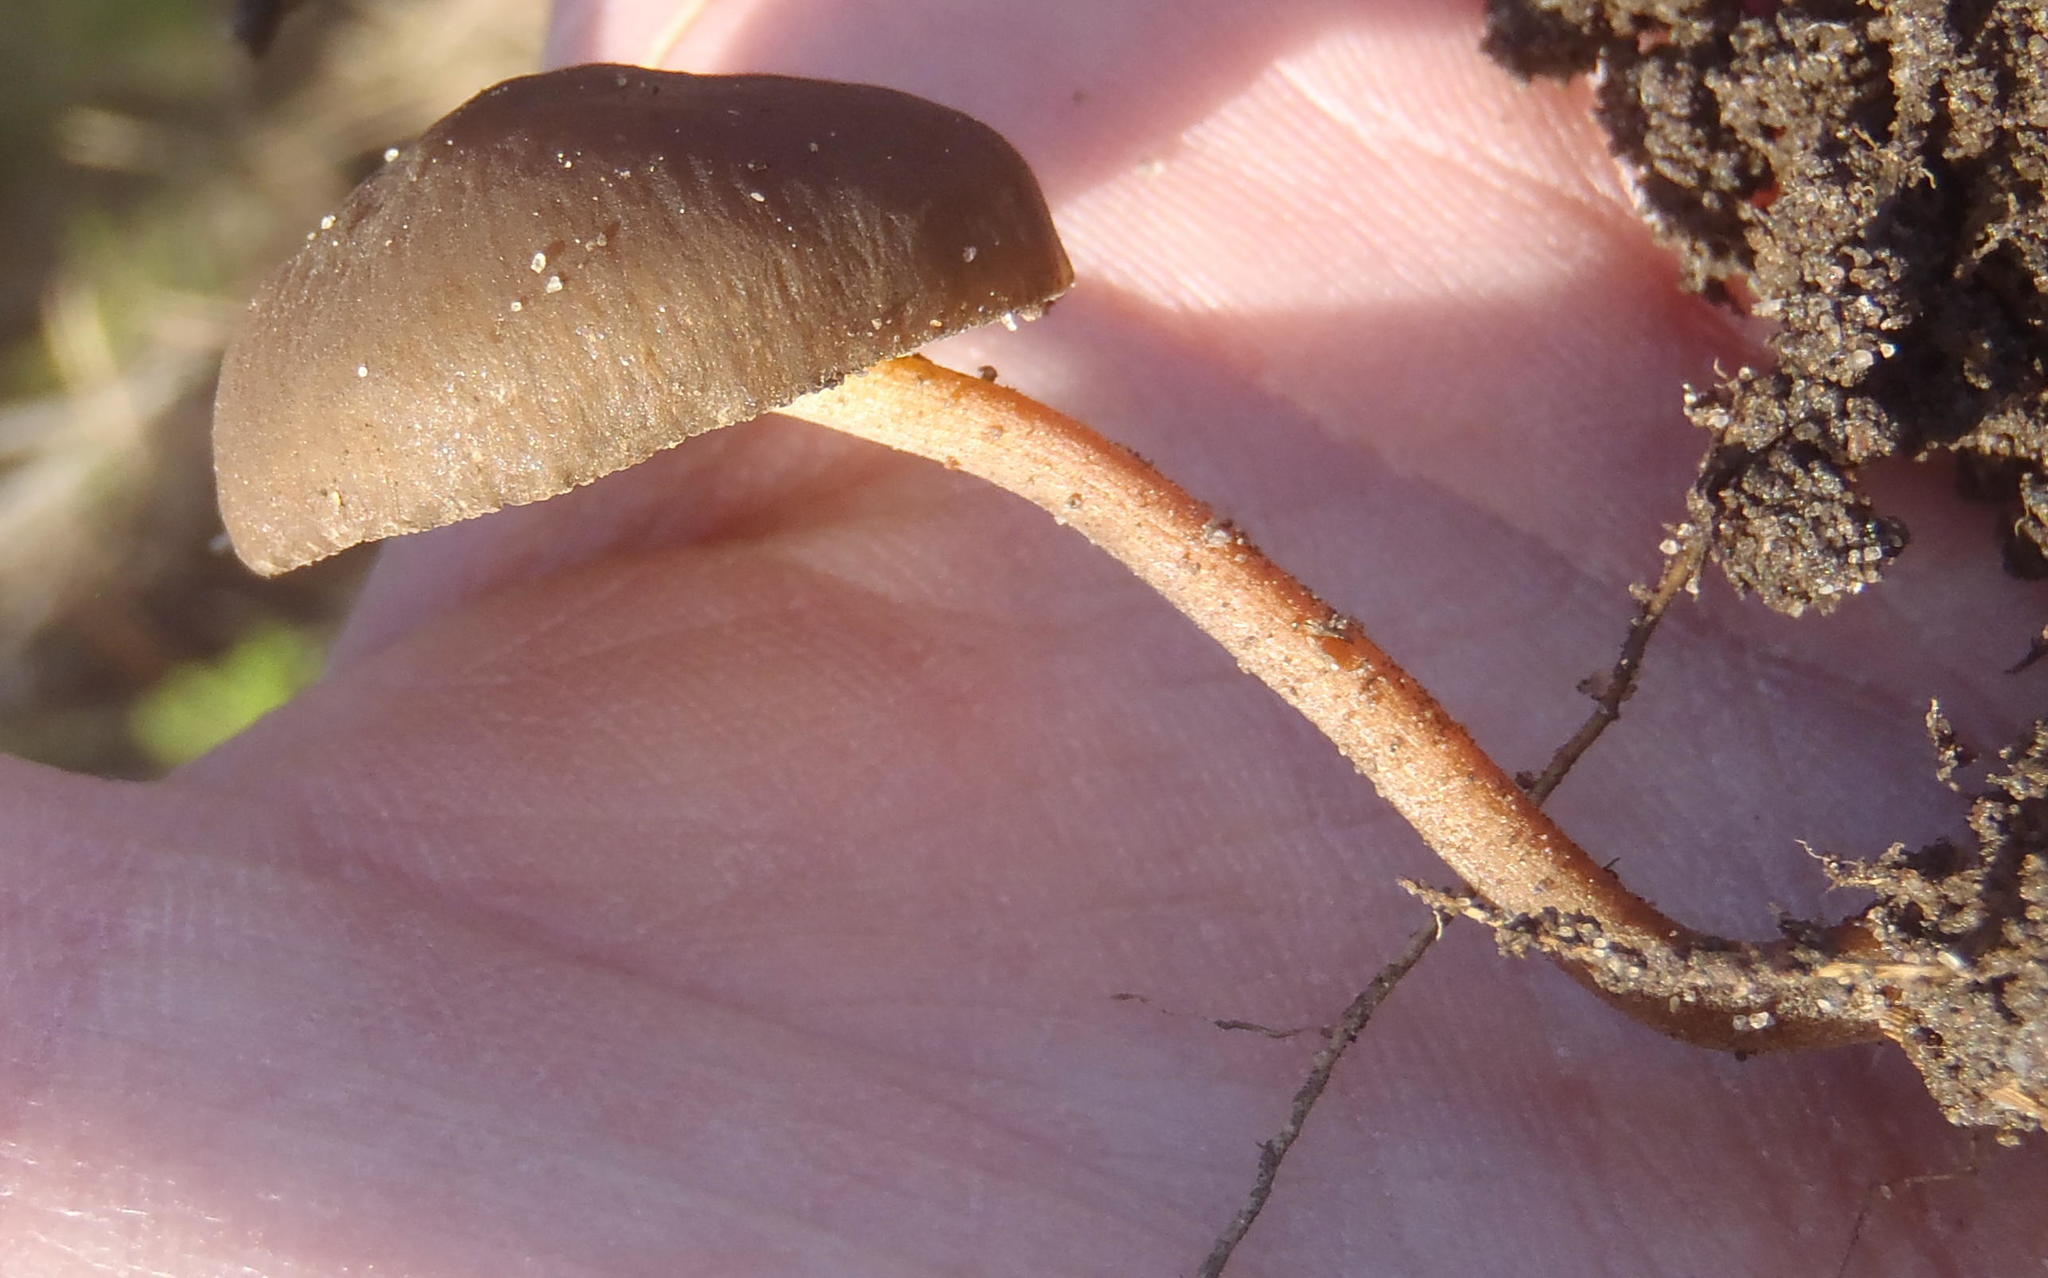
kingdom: Fungi
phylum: Basidiomycota
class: Agaricomycetes
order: Agaricales
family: Bolbitiaceae
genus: Panaeolina
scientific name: Panaeolina foenisecii
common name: Brown hay cap
